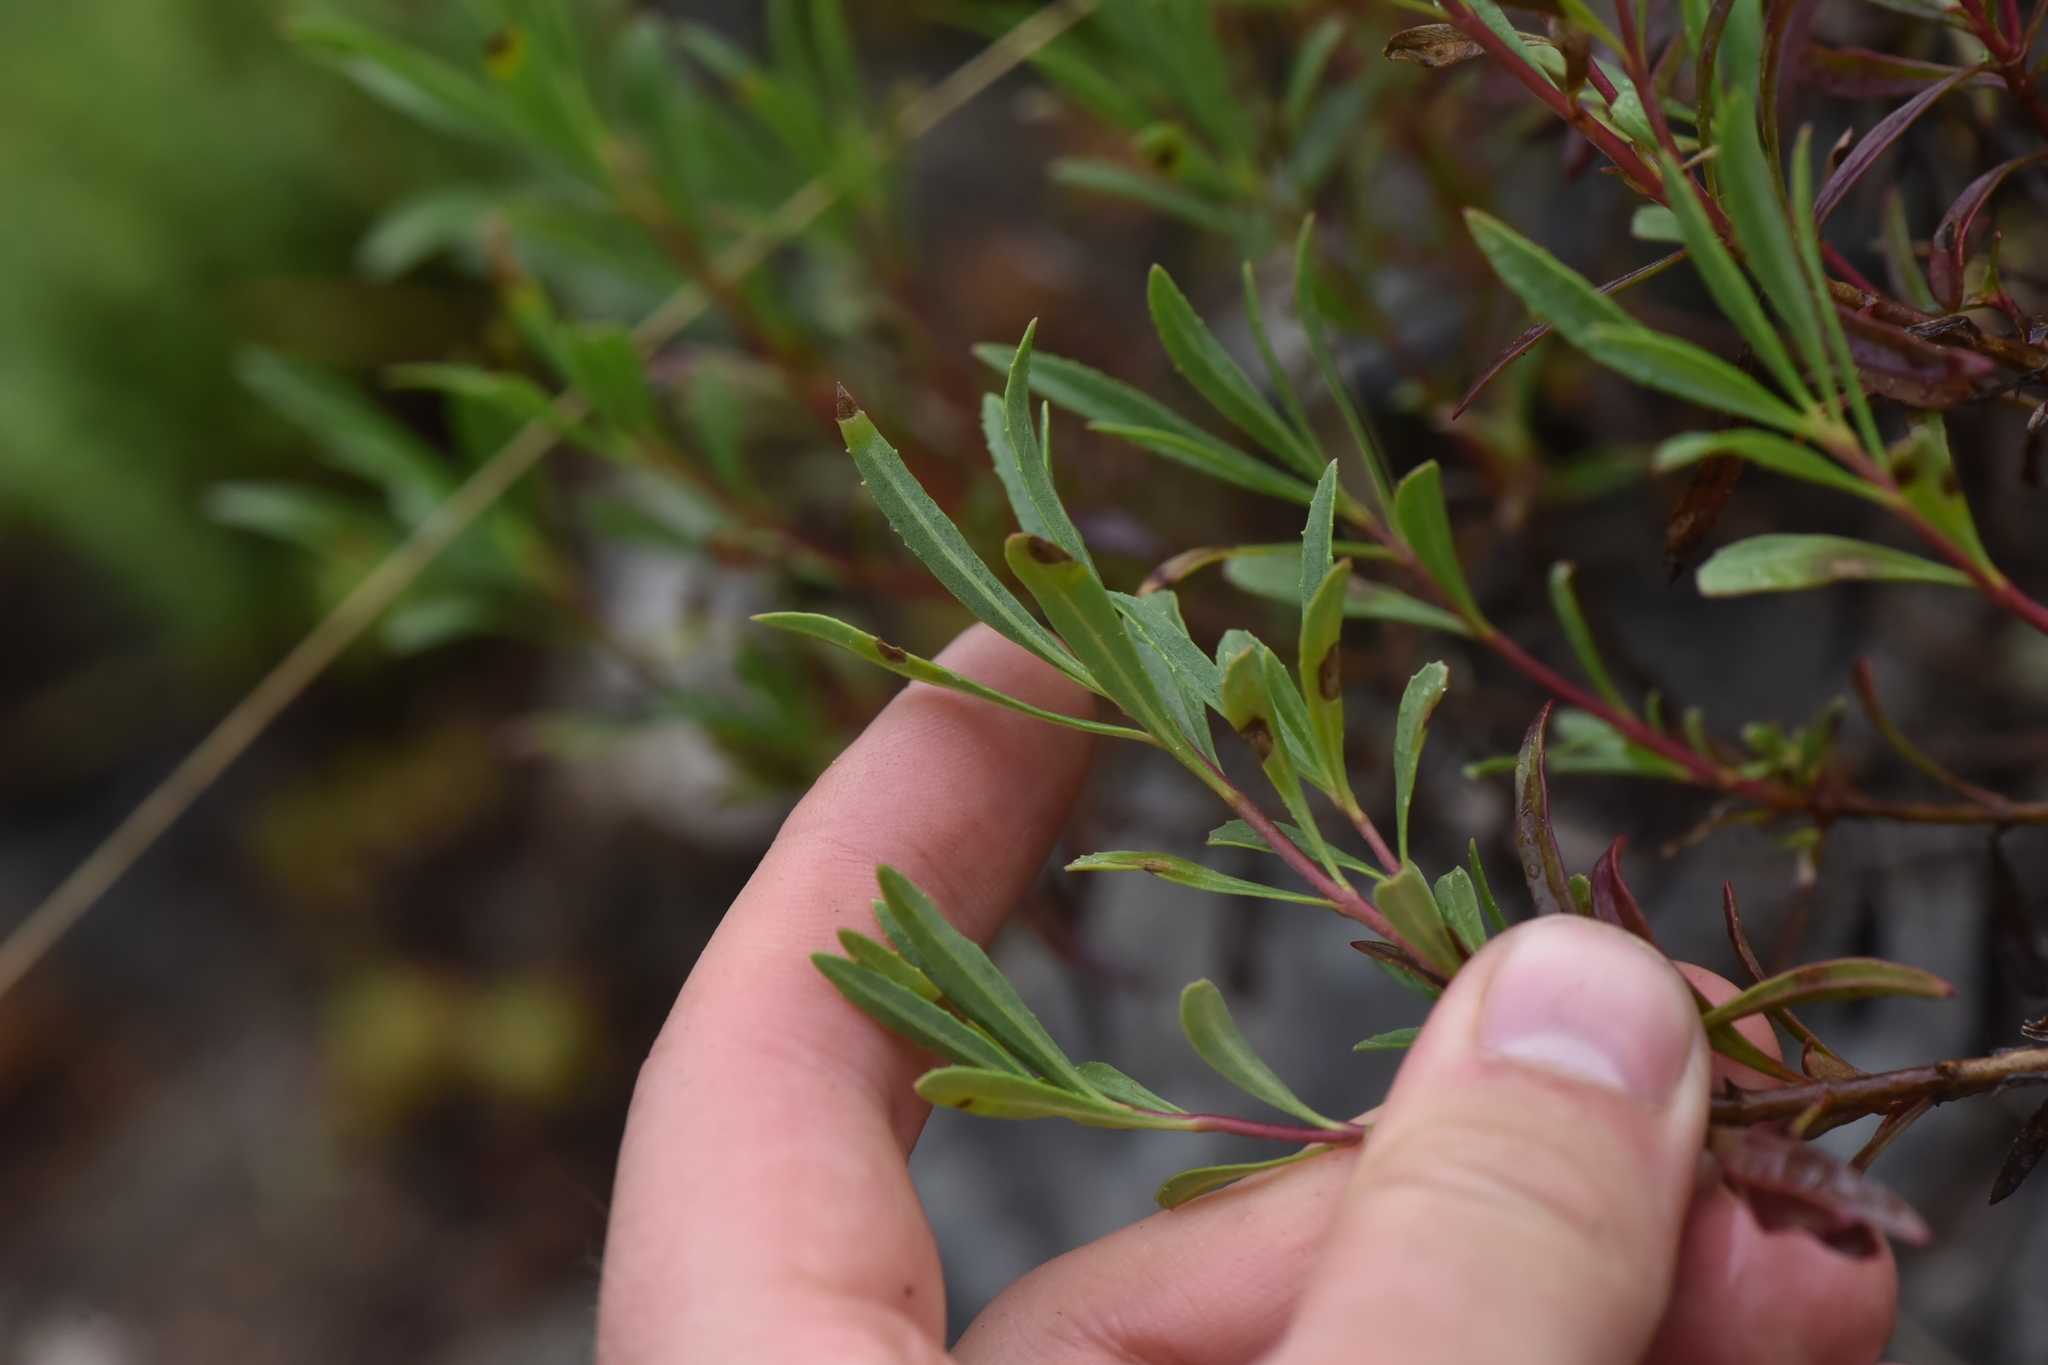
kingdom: Plantae
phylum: Tracheophyta
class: Magnoliopsida
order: Lamiales
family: Plantaginaceae
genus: Penstemon
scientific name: Penstemon fruticosus
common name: Bush penstemon
